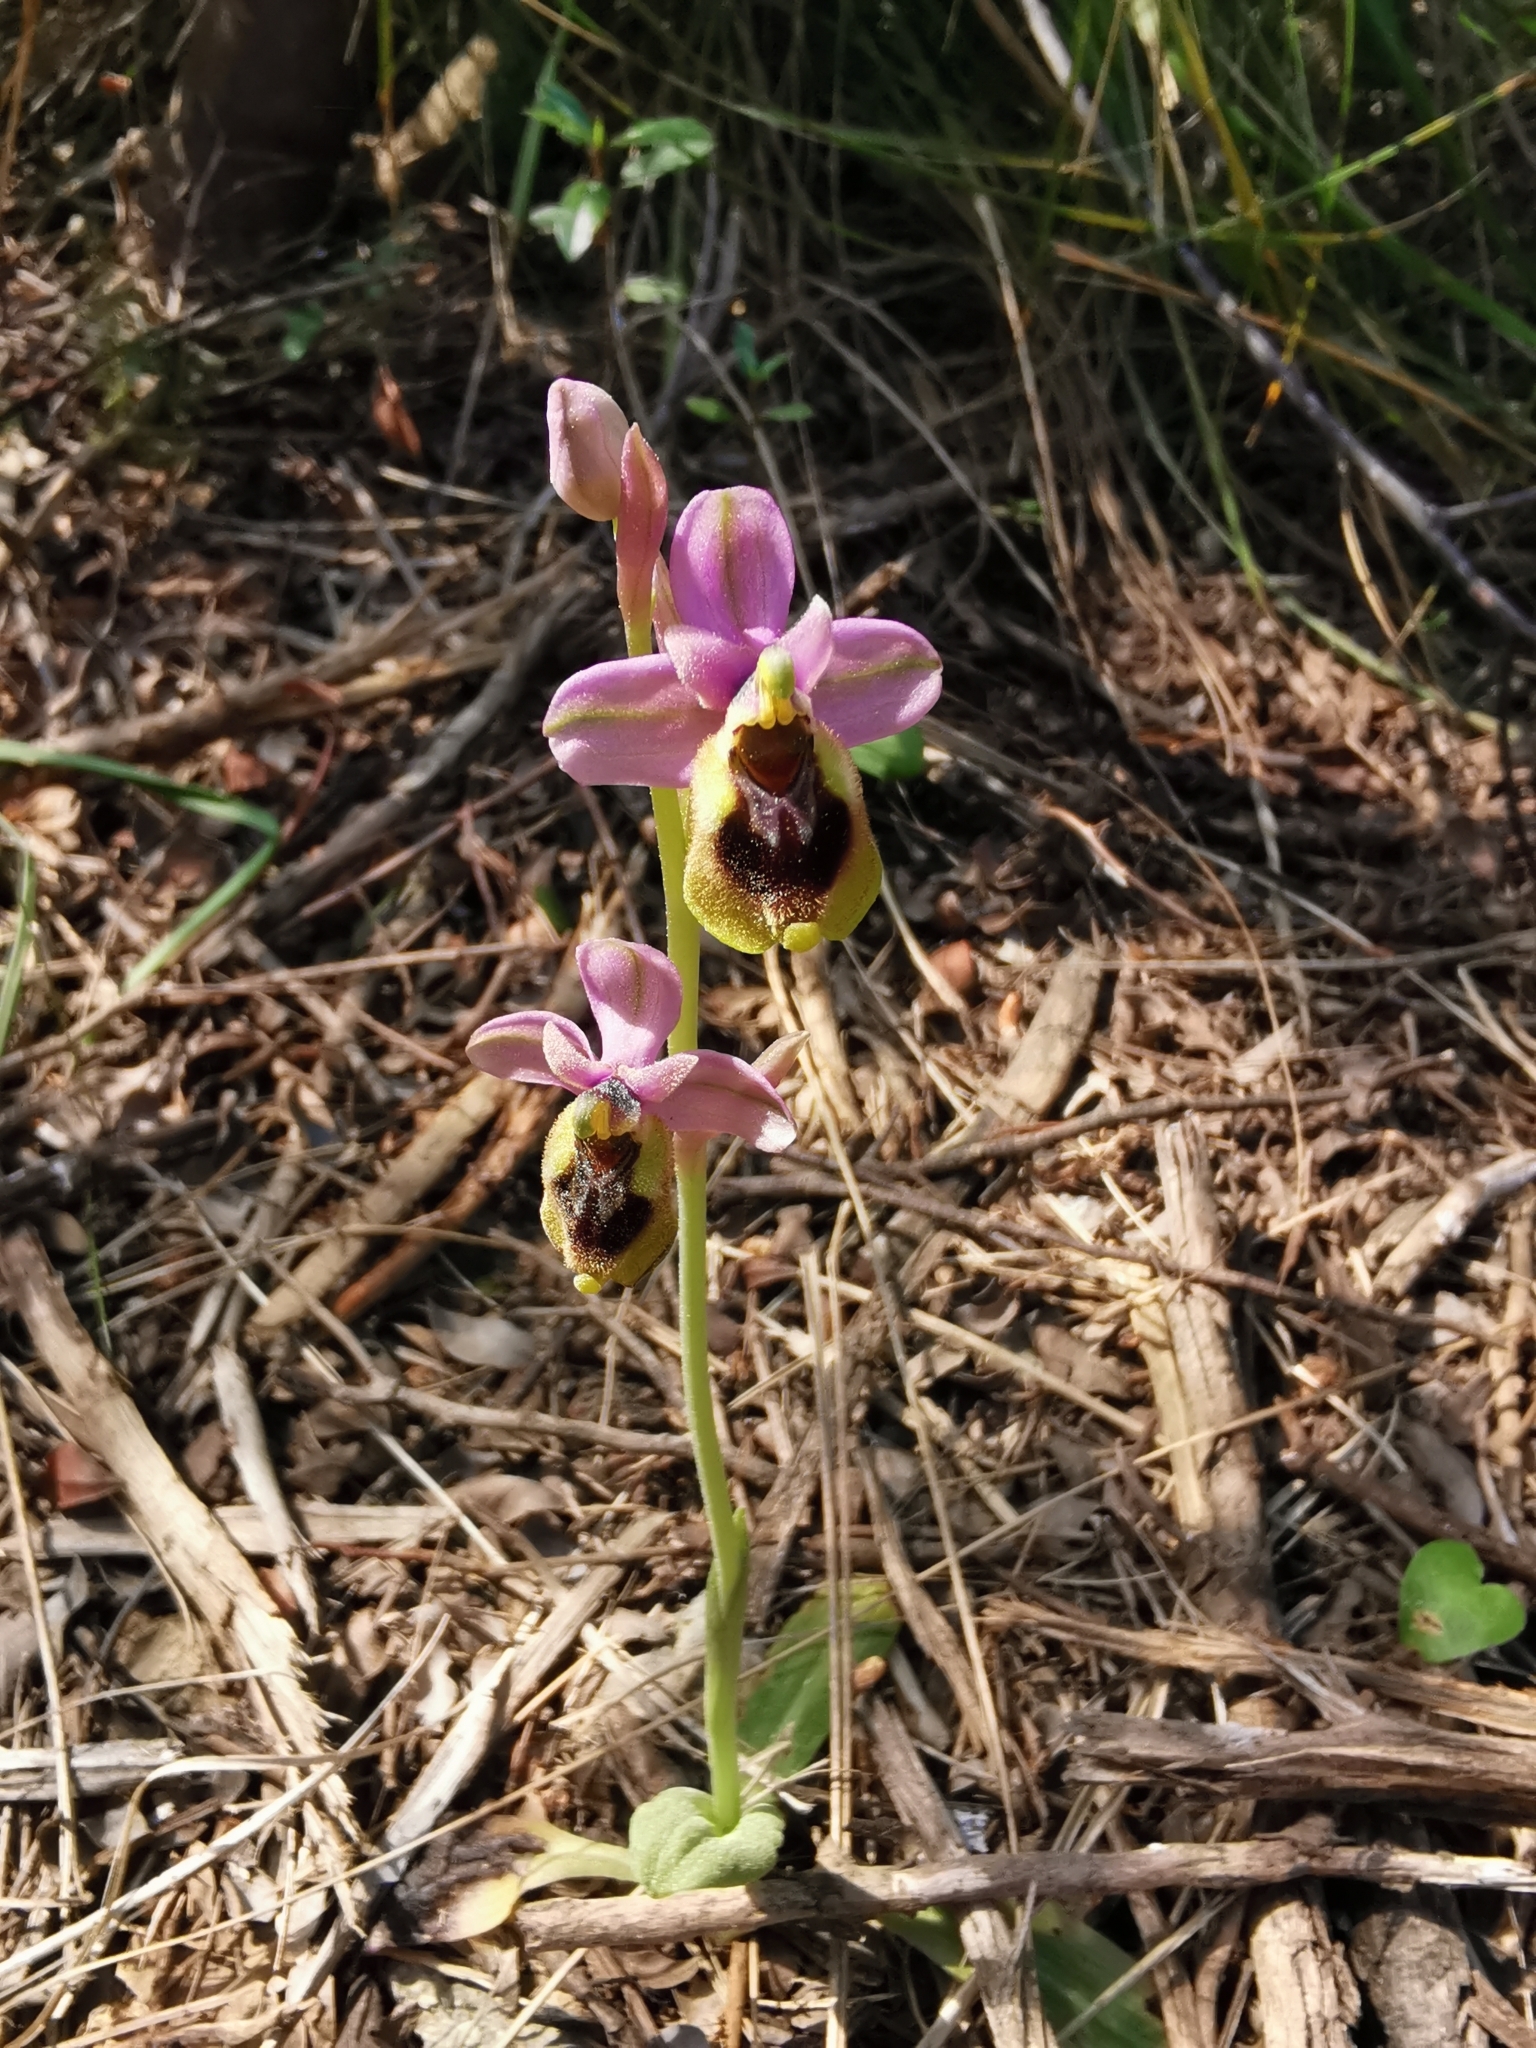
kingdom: Plantae
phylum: Tracheophyta
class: Liliopsida
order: Asparagales
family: Orchidaceae
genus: Ophrys
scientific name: Ophrys tenthredinifera
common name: Sawfly orchid
